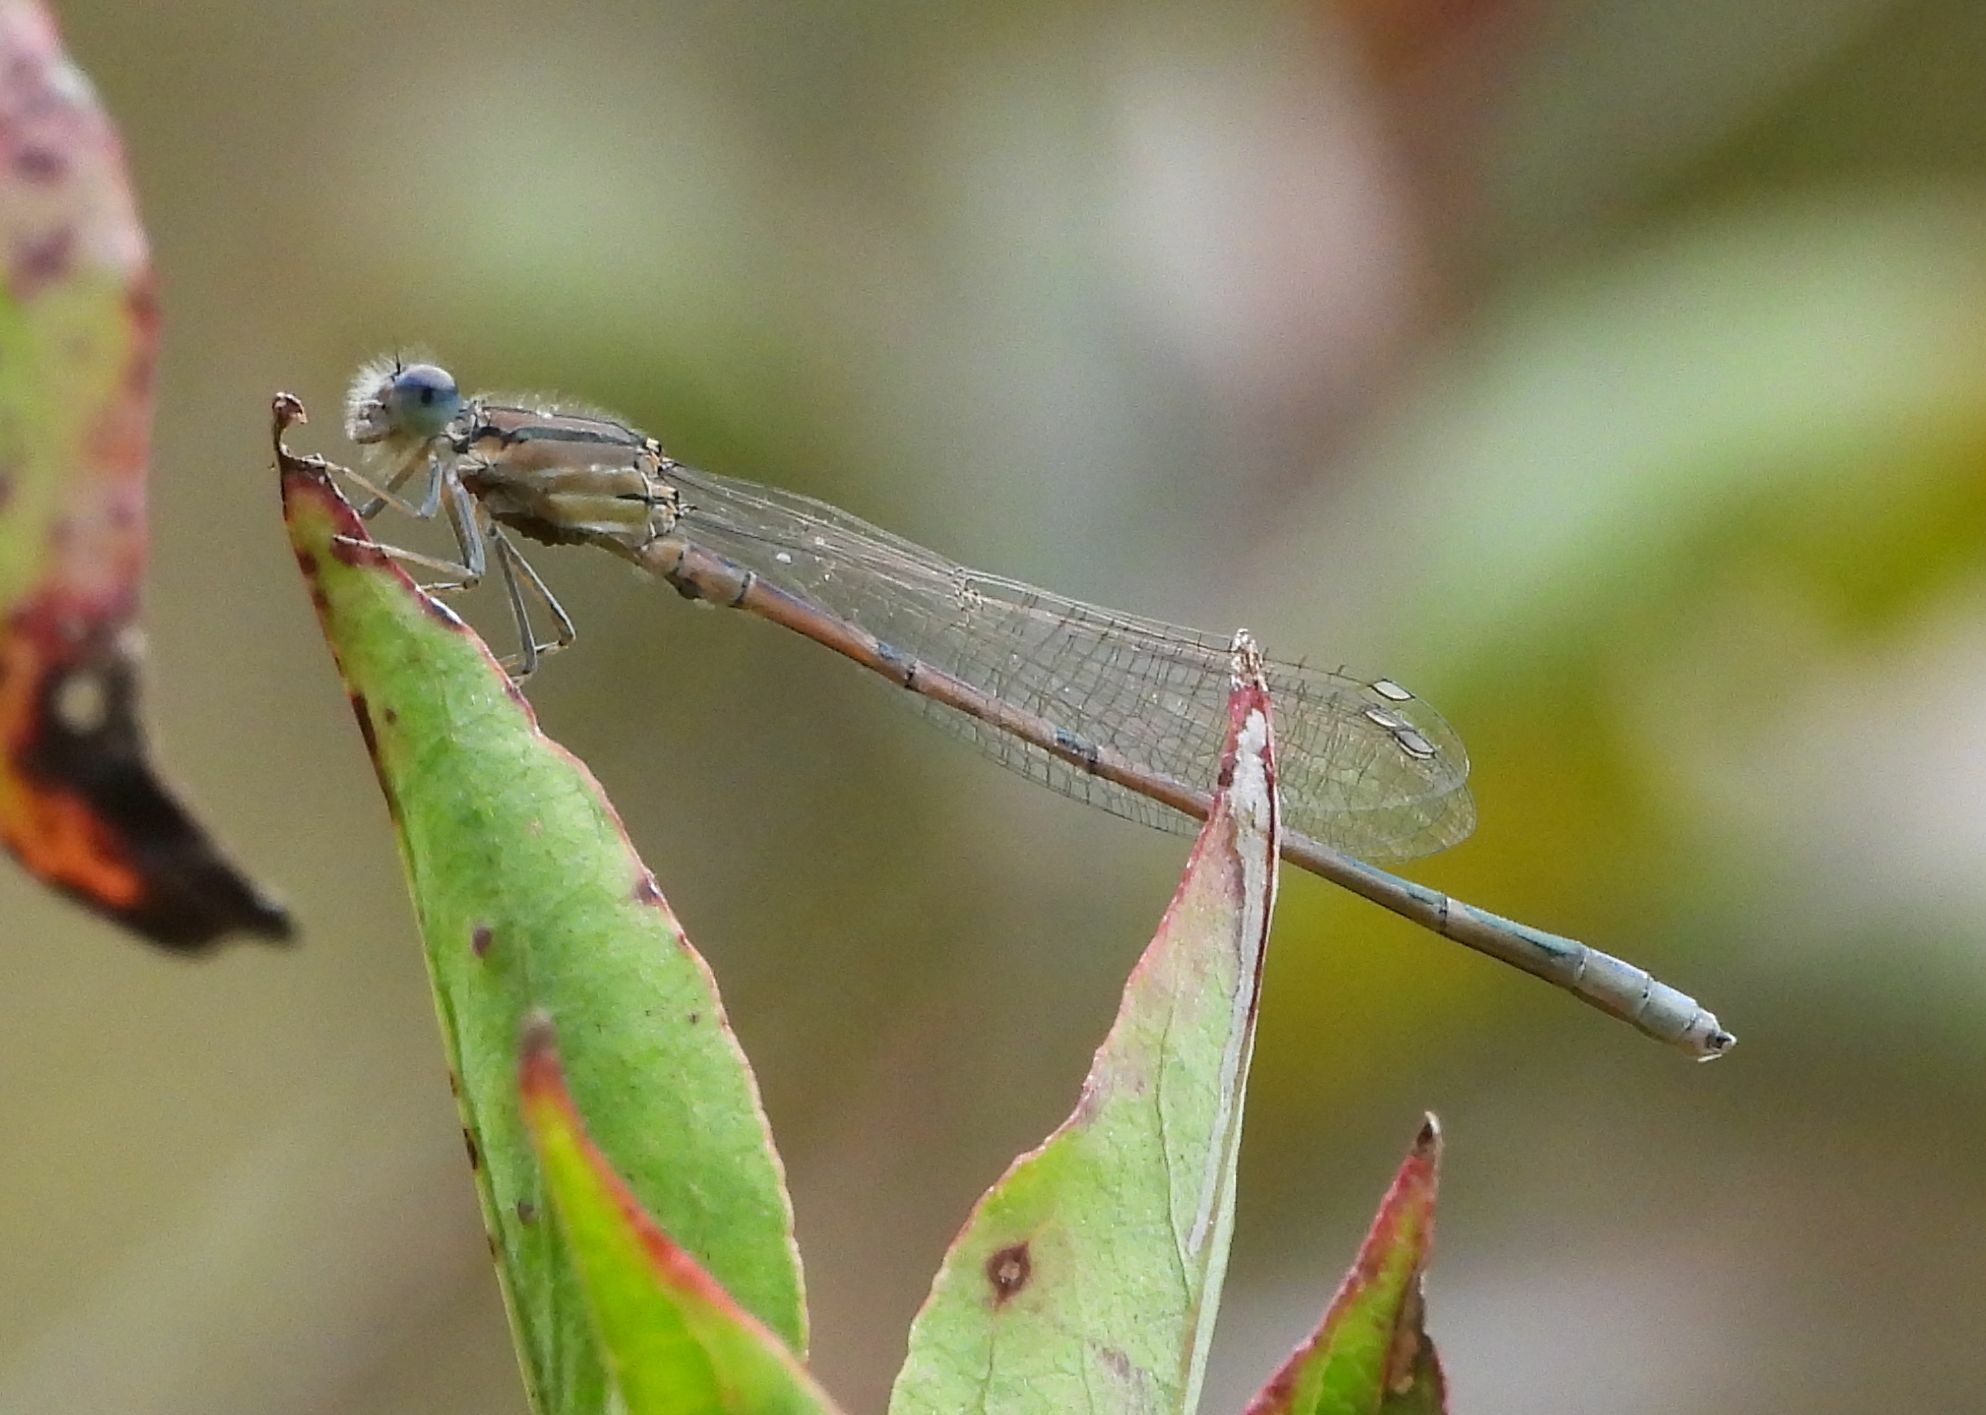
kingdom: Animalia
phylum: Arthropoda
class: Insecta
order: Odonata
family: Coenagrionidae
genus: Enallagma
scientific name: Enallagma civile
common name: Damselfly
